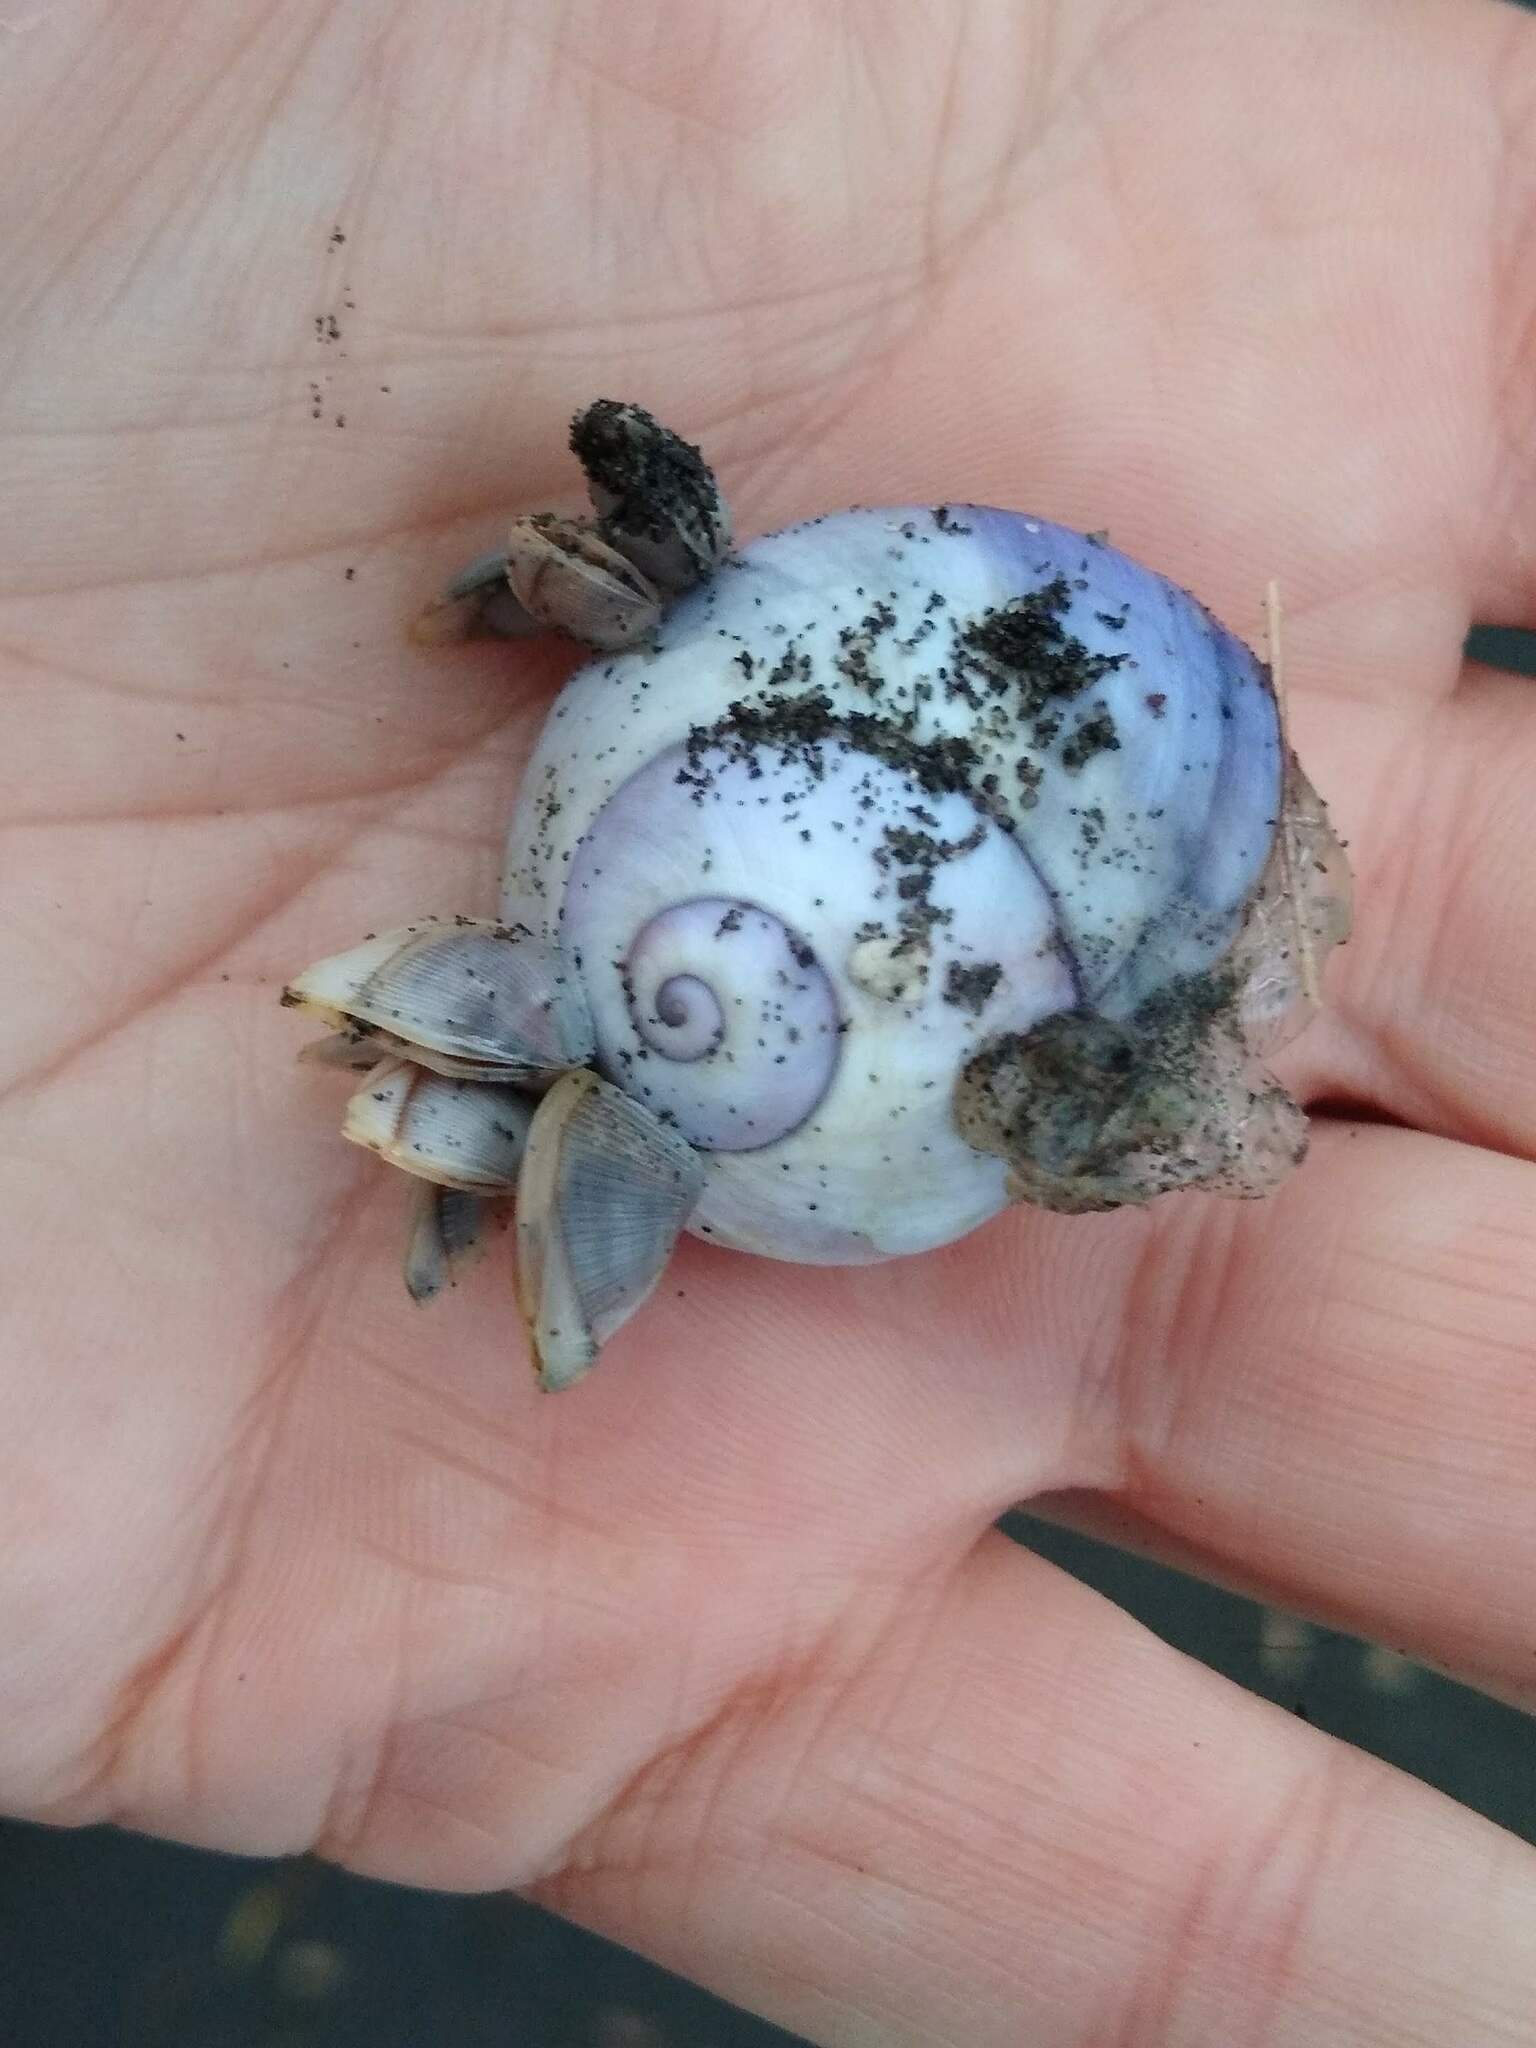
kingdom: Animalia
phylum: Mollusca
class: Gastropoda
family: Epitoniidae
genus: Janthina
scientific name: Janthina janthina
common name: Common janthina
